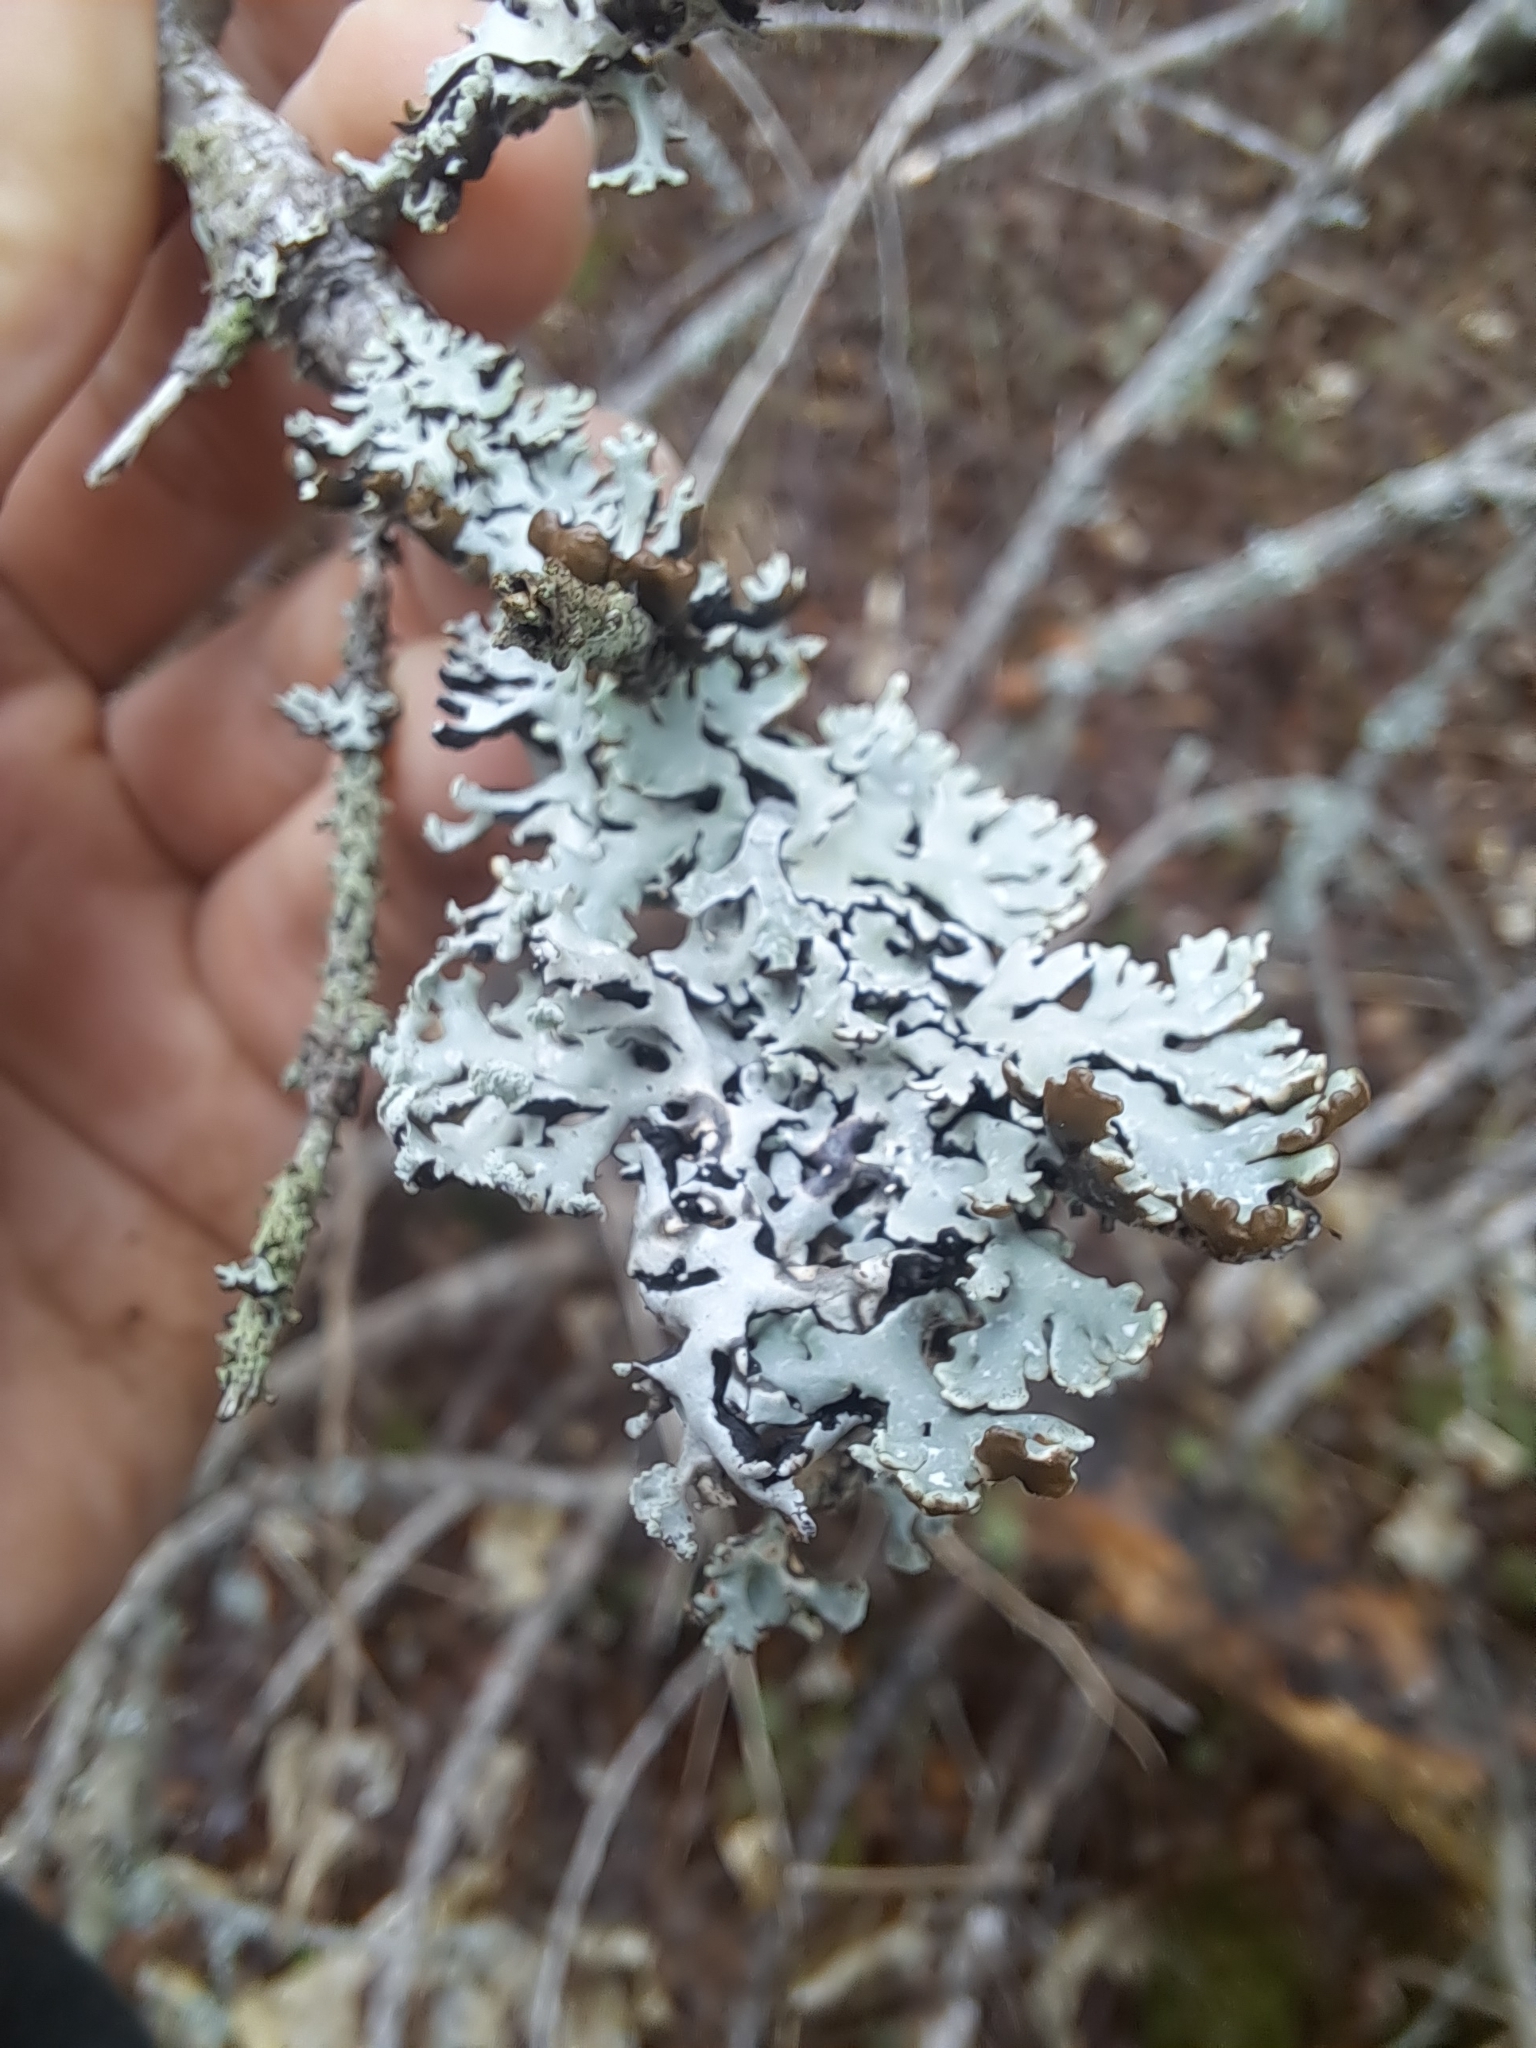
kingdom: Fungi
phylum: Ascomycota
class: Lecanoromycetes
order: Lecanorales
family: Parmeliaceae
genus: Hypogymnia
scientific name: Hypogymnia physodes
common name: Dark crottle
